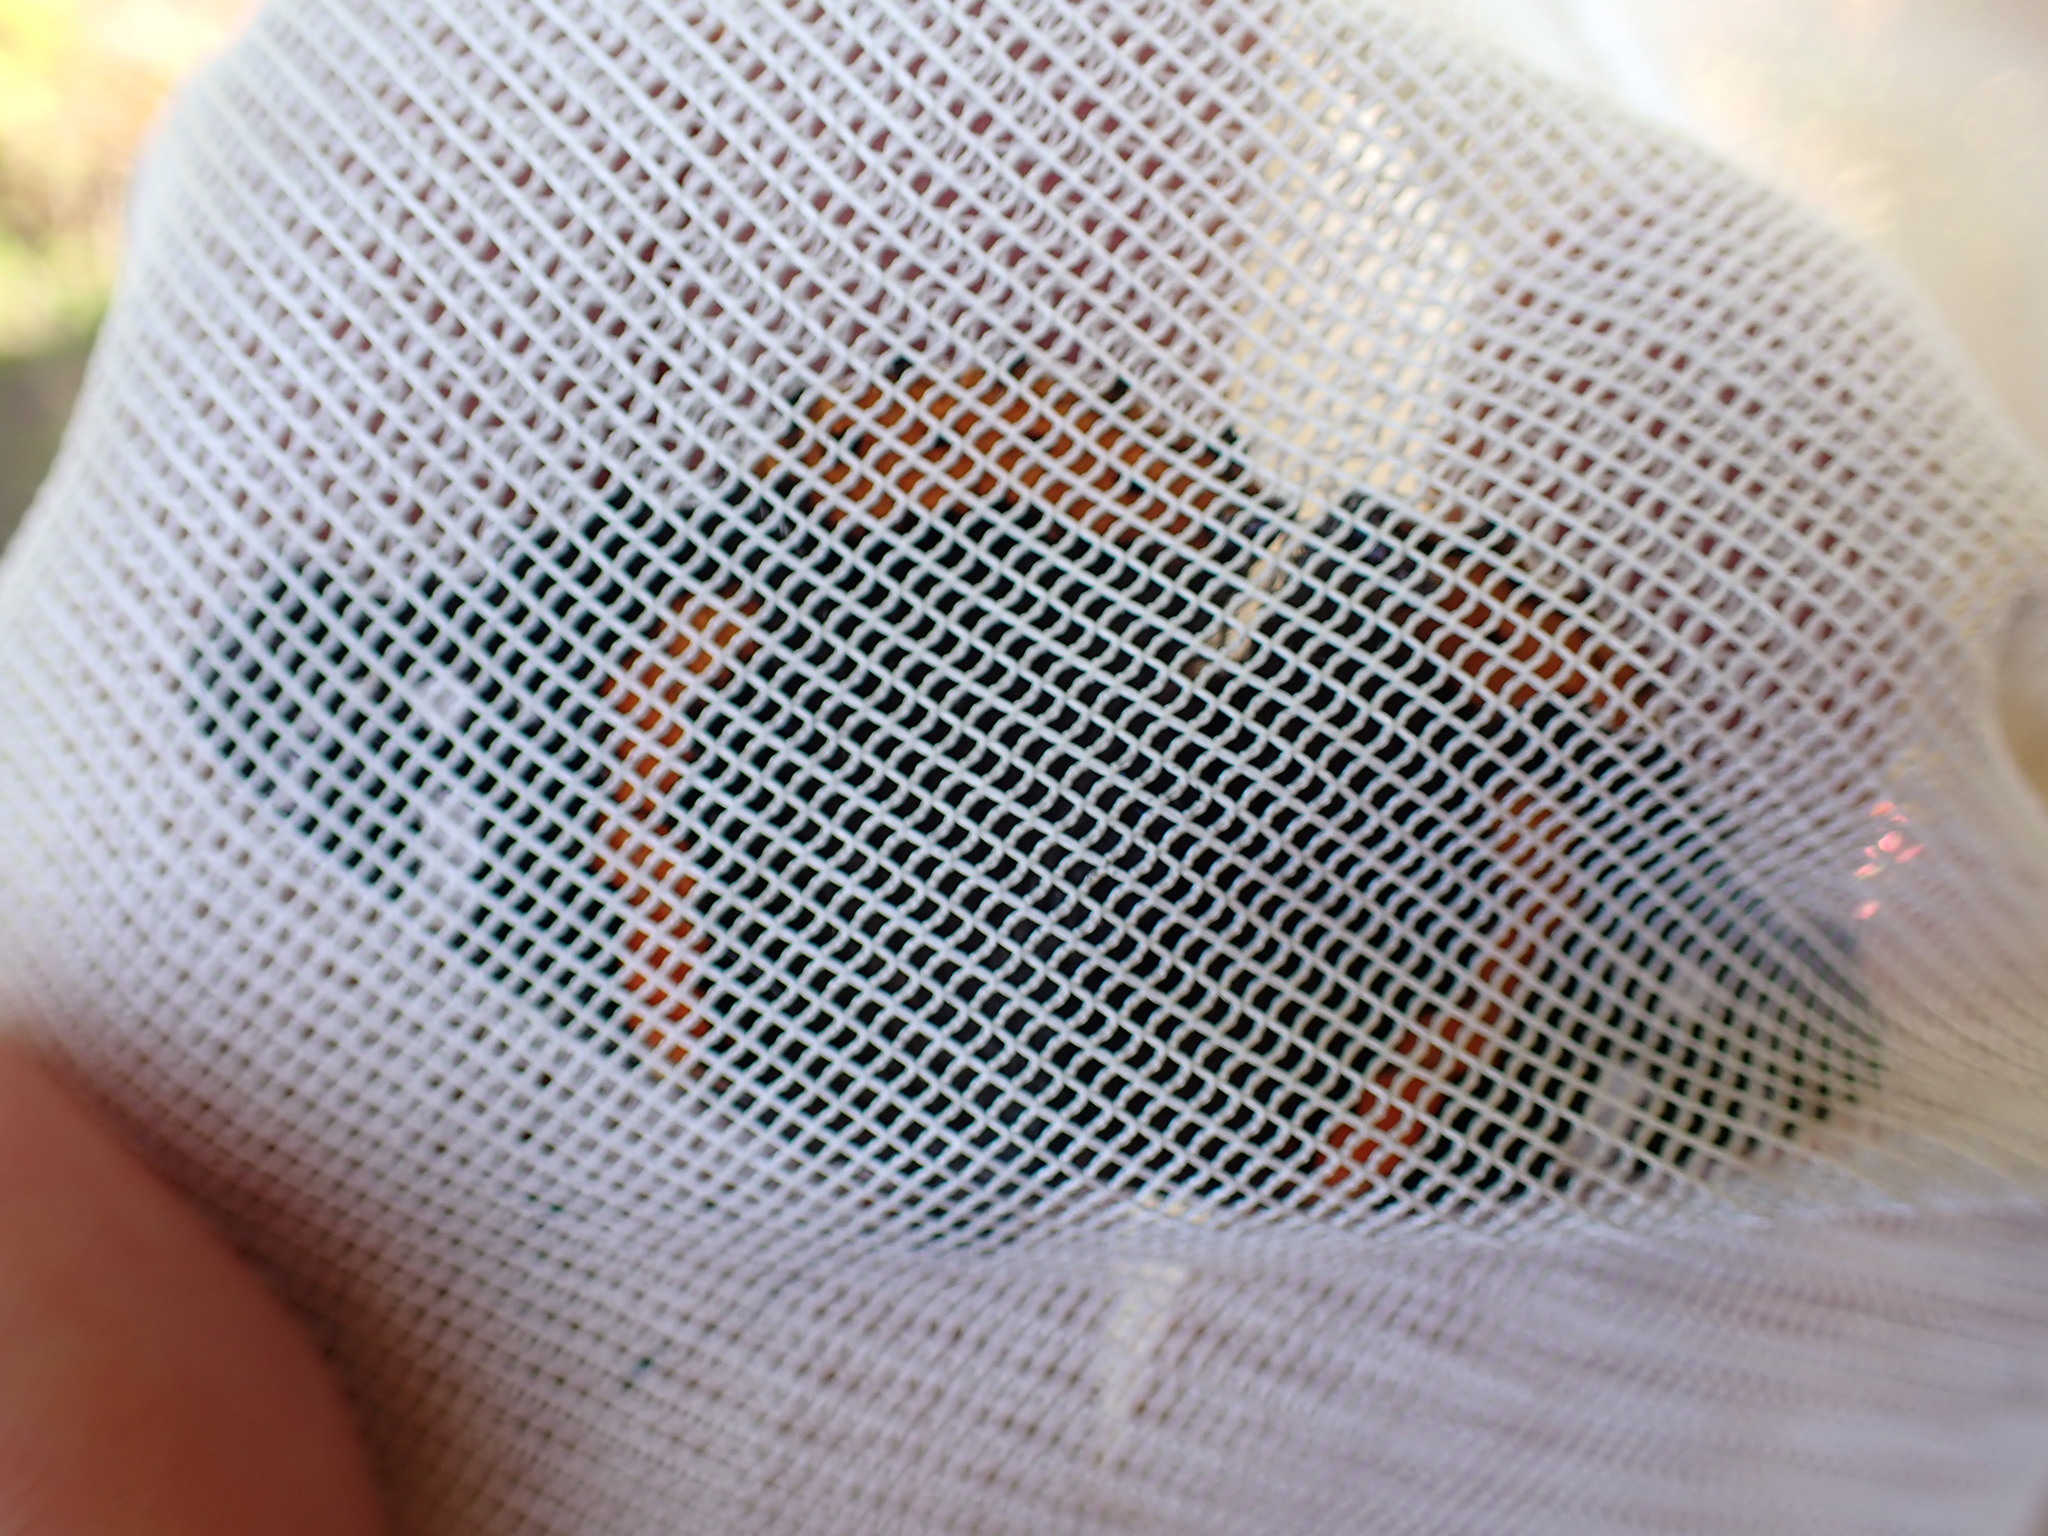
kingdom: Animalia
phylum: Arthropoda
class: Insecta
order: Lepidoptera
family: Nymphalidae
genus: Vanessa
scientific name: Vanessa atalanta
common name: Red admiral
